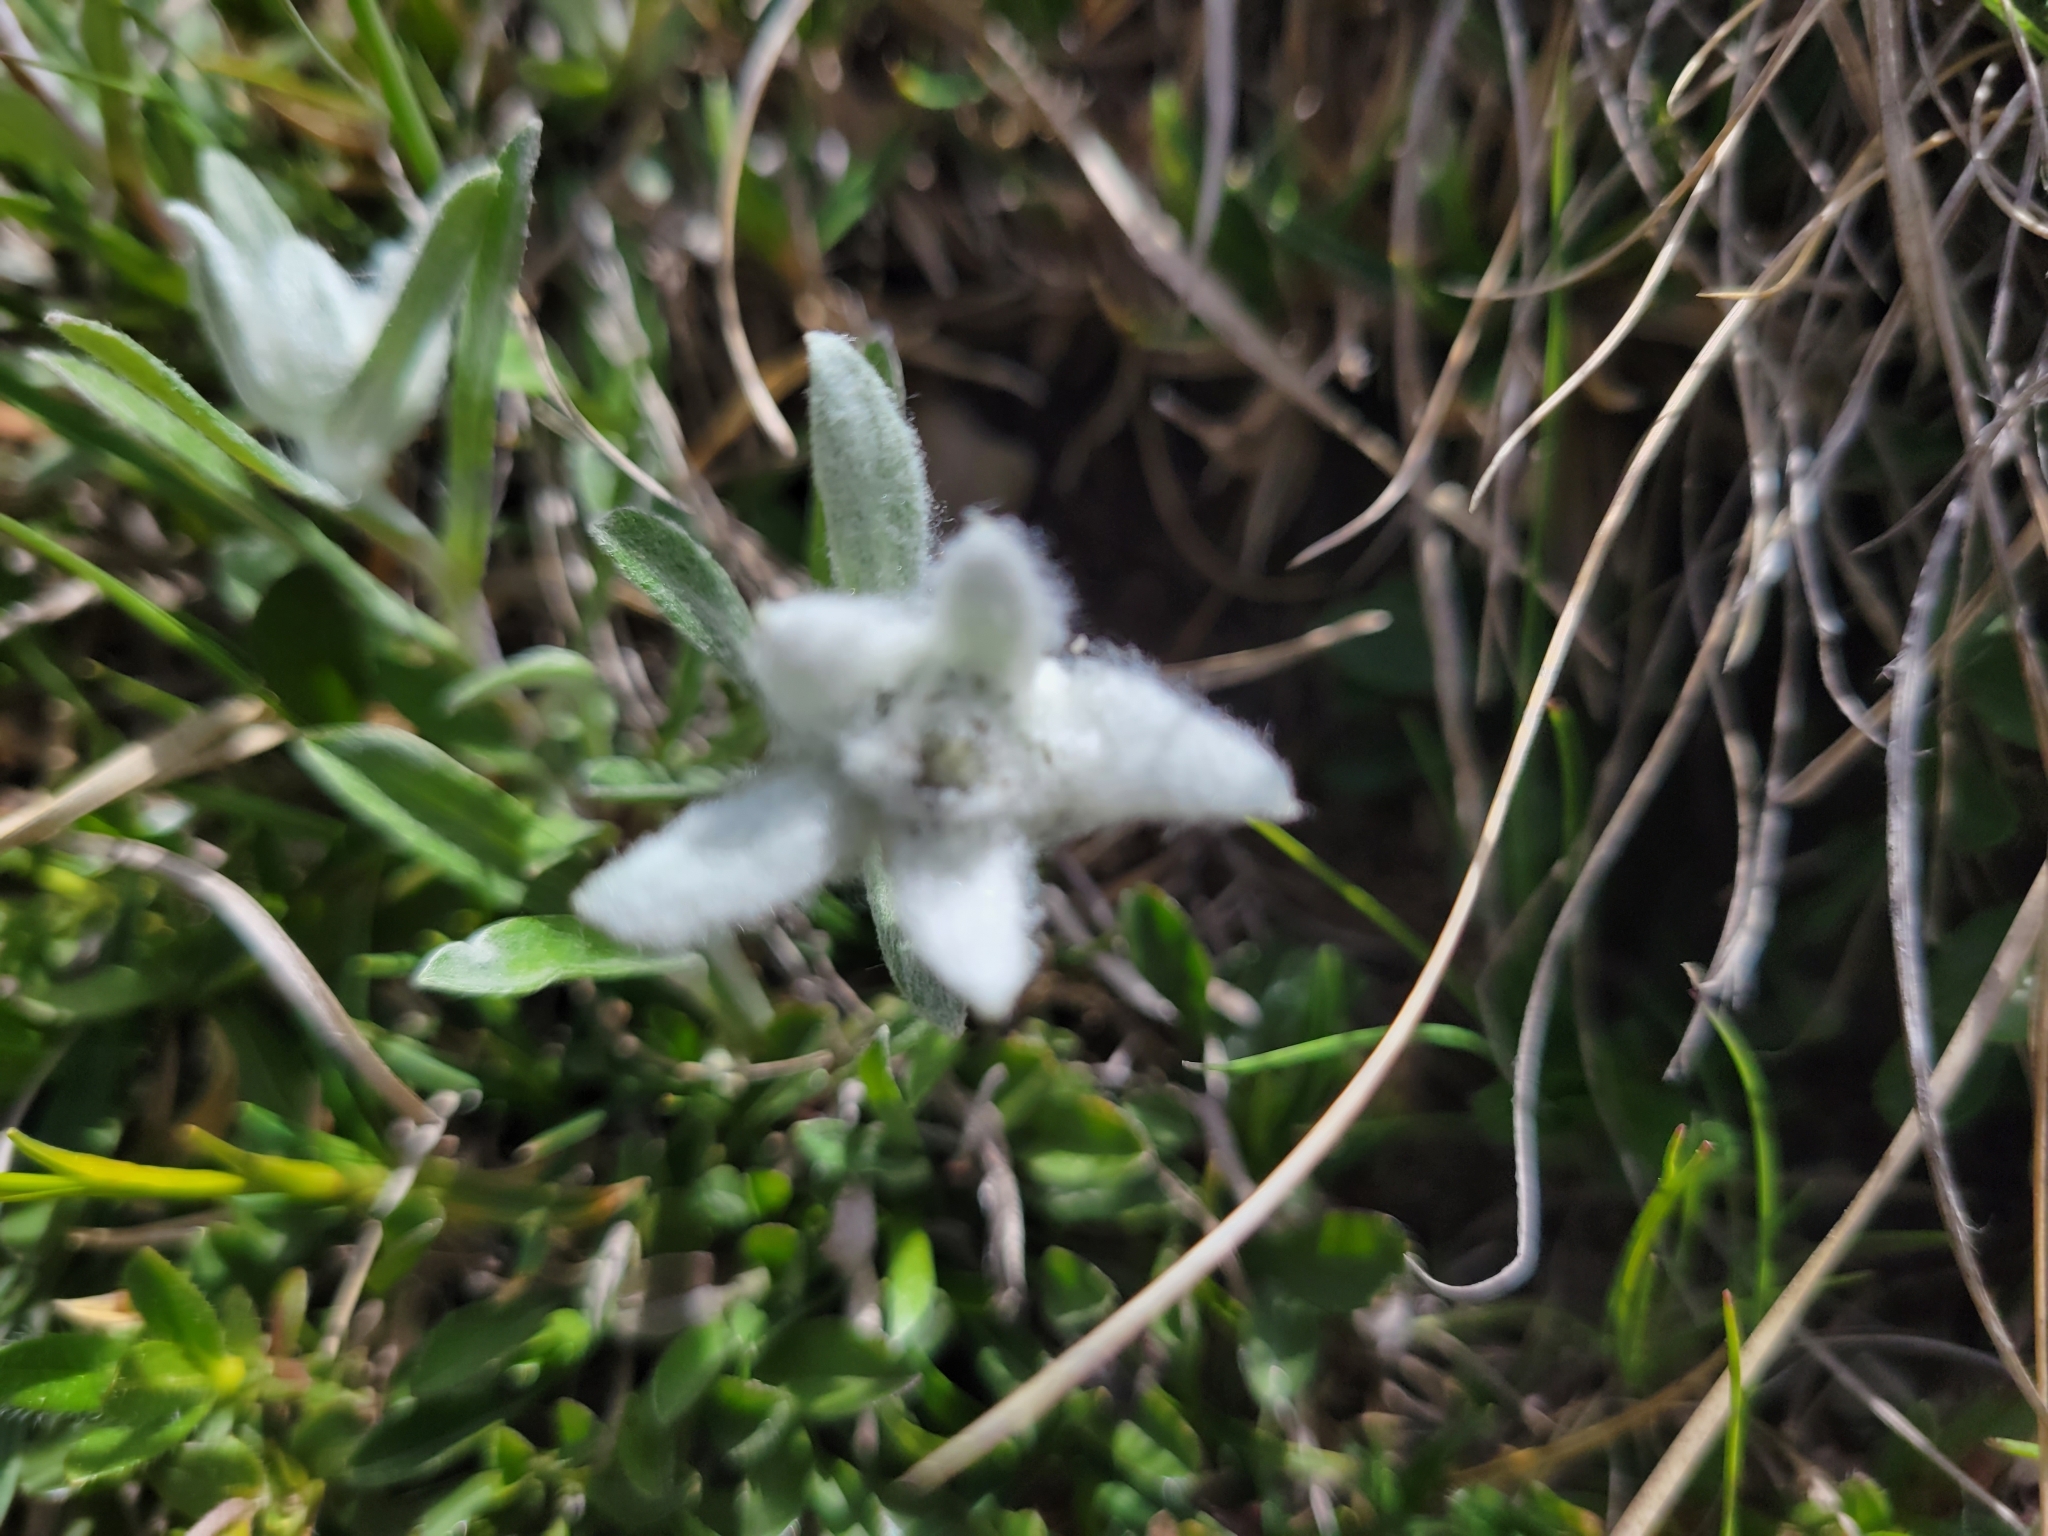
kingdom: Plantae
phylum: Tracheophyta
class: Magnoliopsida
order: Asterales
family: Asteraceae
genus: Leontopodium
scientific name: Leontopodium nivale
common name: Edelweiss
